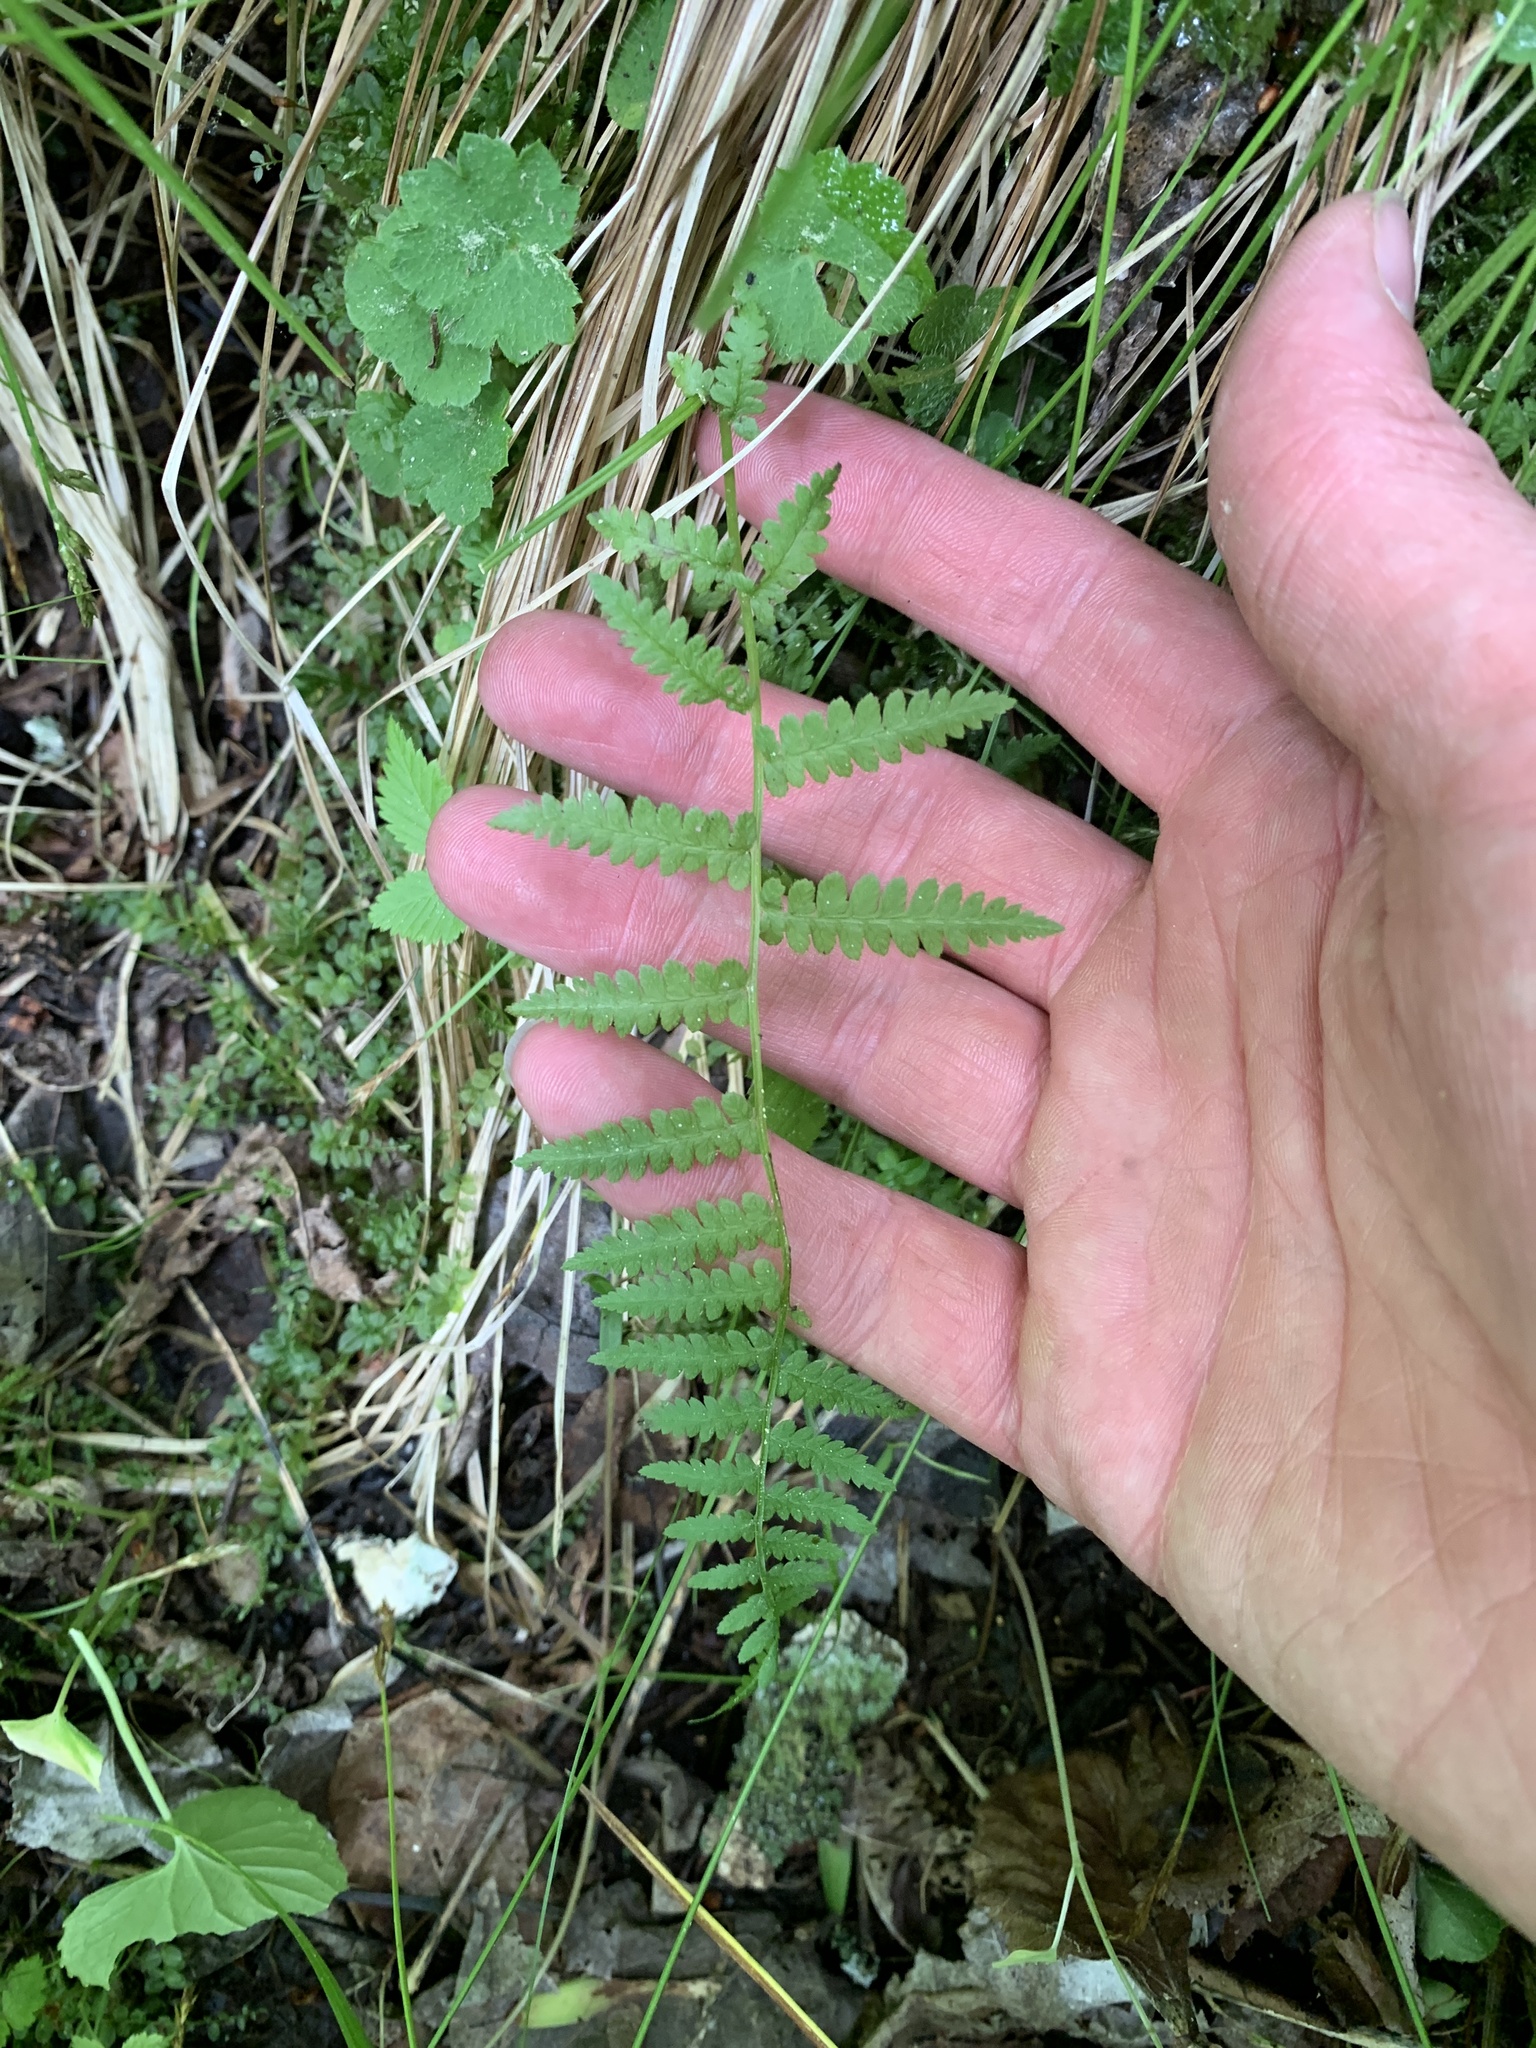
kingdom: Plantae
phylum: Tracheophyta
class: Polypodiopsida
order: Polypodiales
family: Thelypteridaceae
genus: Amauropelta
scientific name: Amauropelta noveboracensis
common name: New york fern
